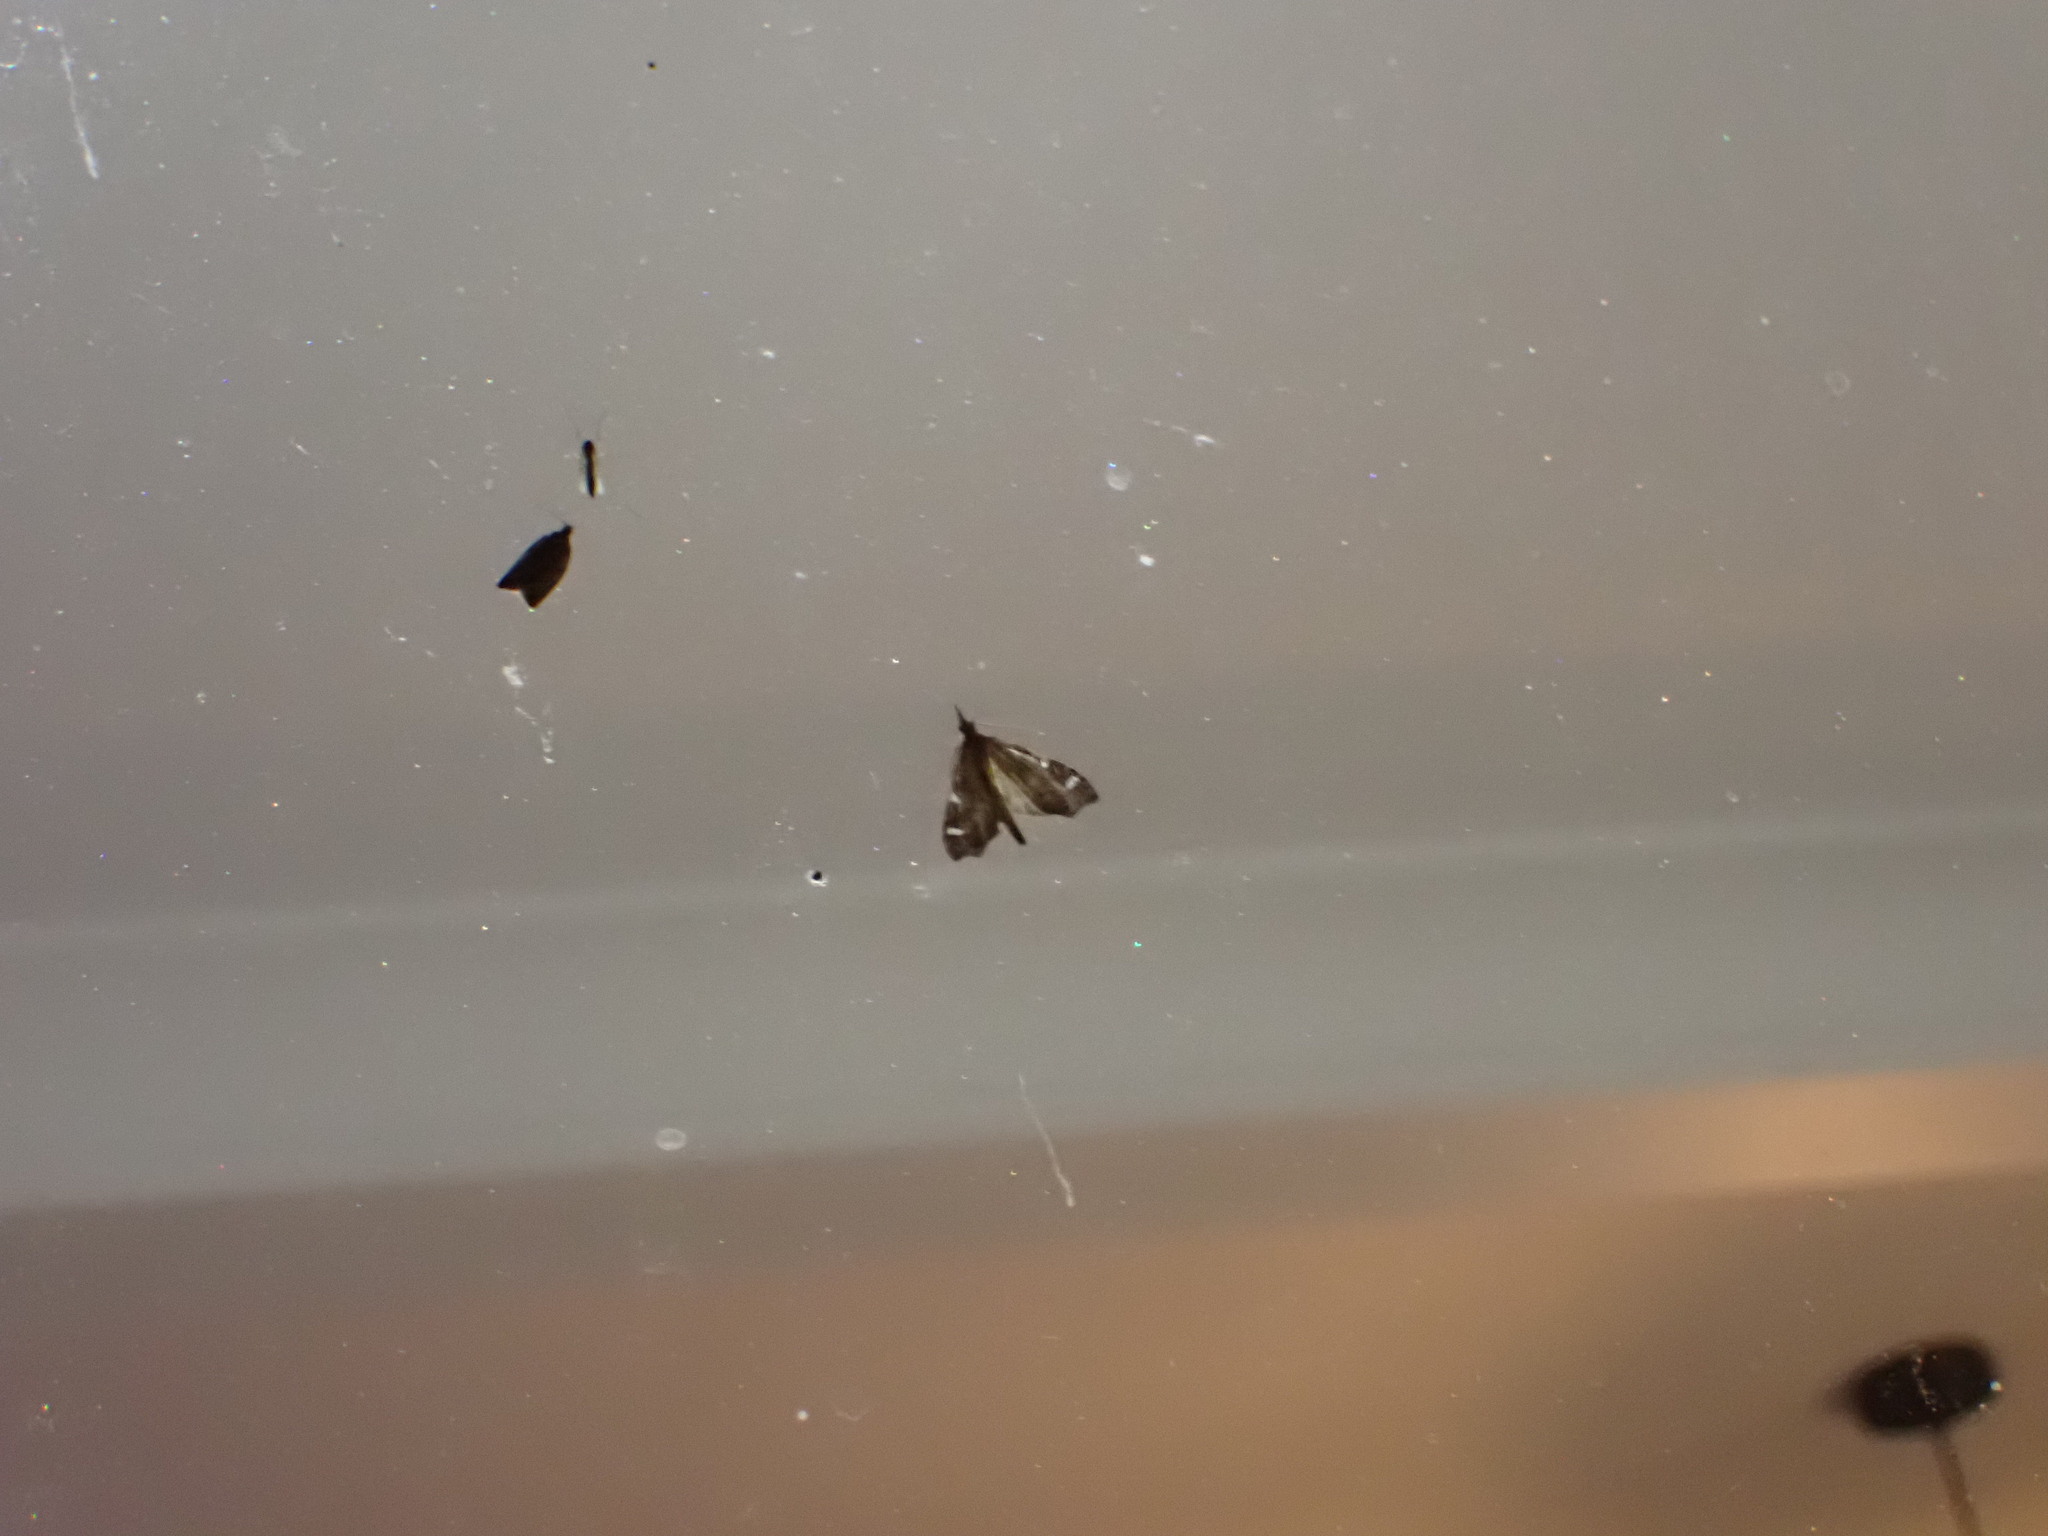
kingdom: Animalia
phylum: Arthropoda
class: Insecta
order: Lepidoptera
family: Crambidae
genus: Deana
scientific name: Deana hybreasalis
